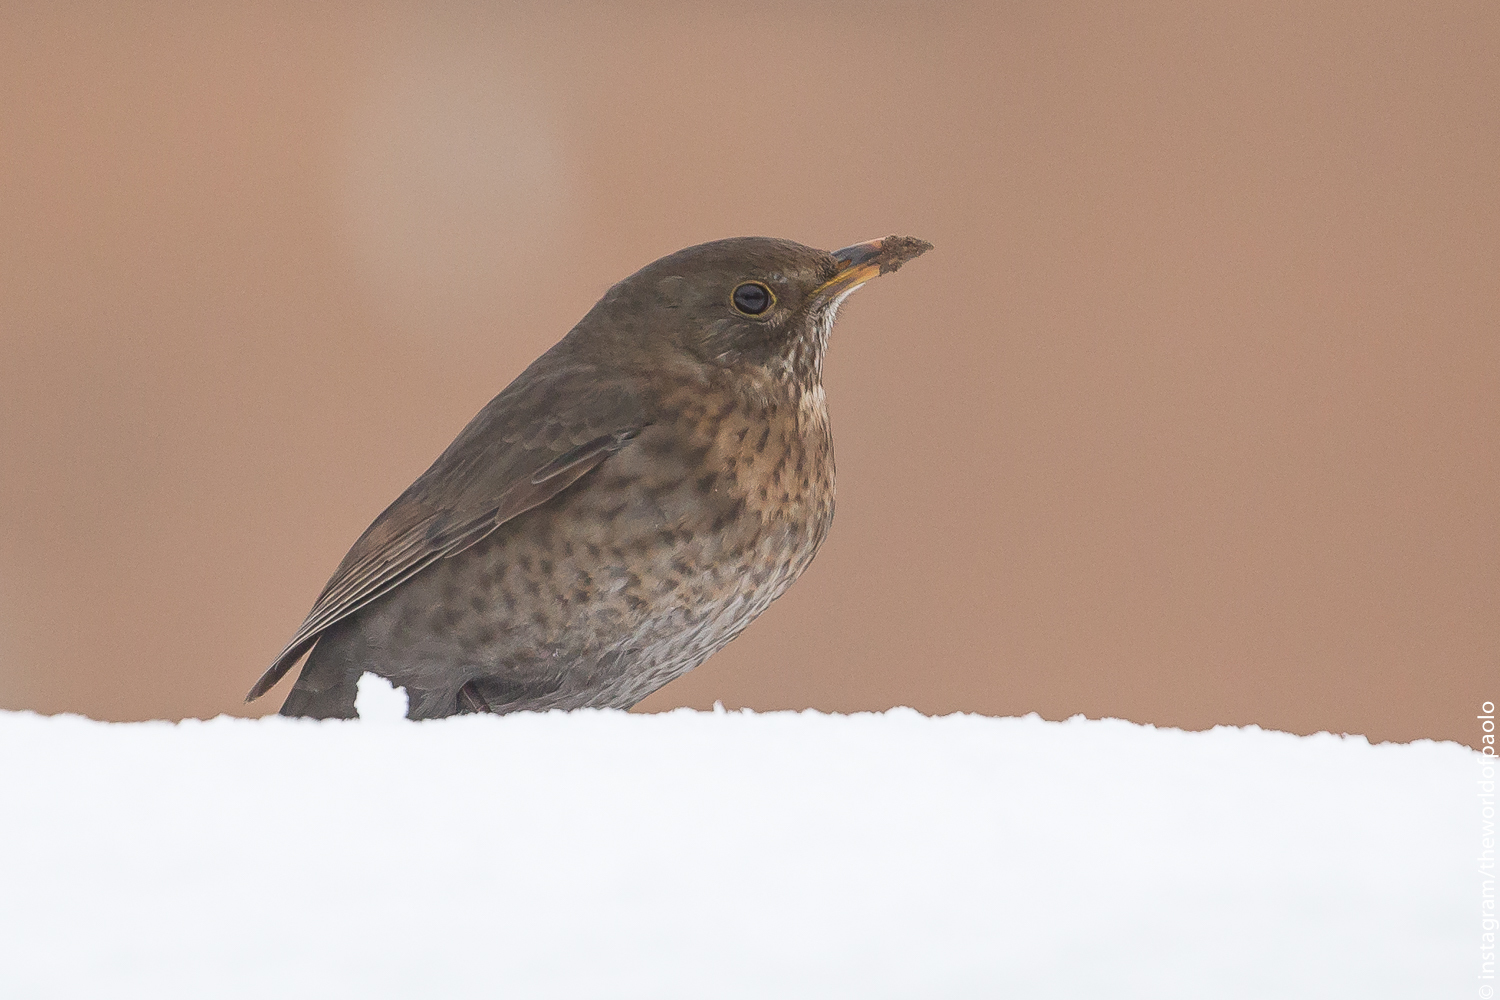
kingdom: Animalia
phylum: Chordata
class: Aves
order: Passeriformes
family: Turdidae
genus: Turdus
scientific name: Turdus merula
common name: Common blackbird
